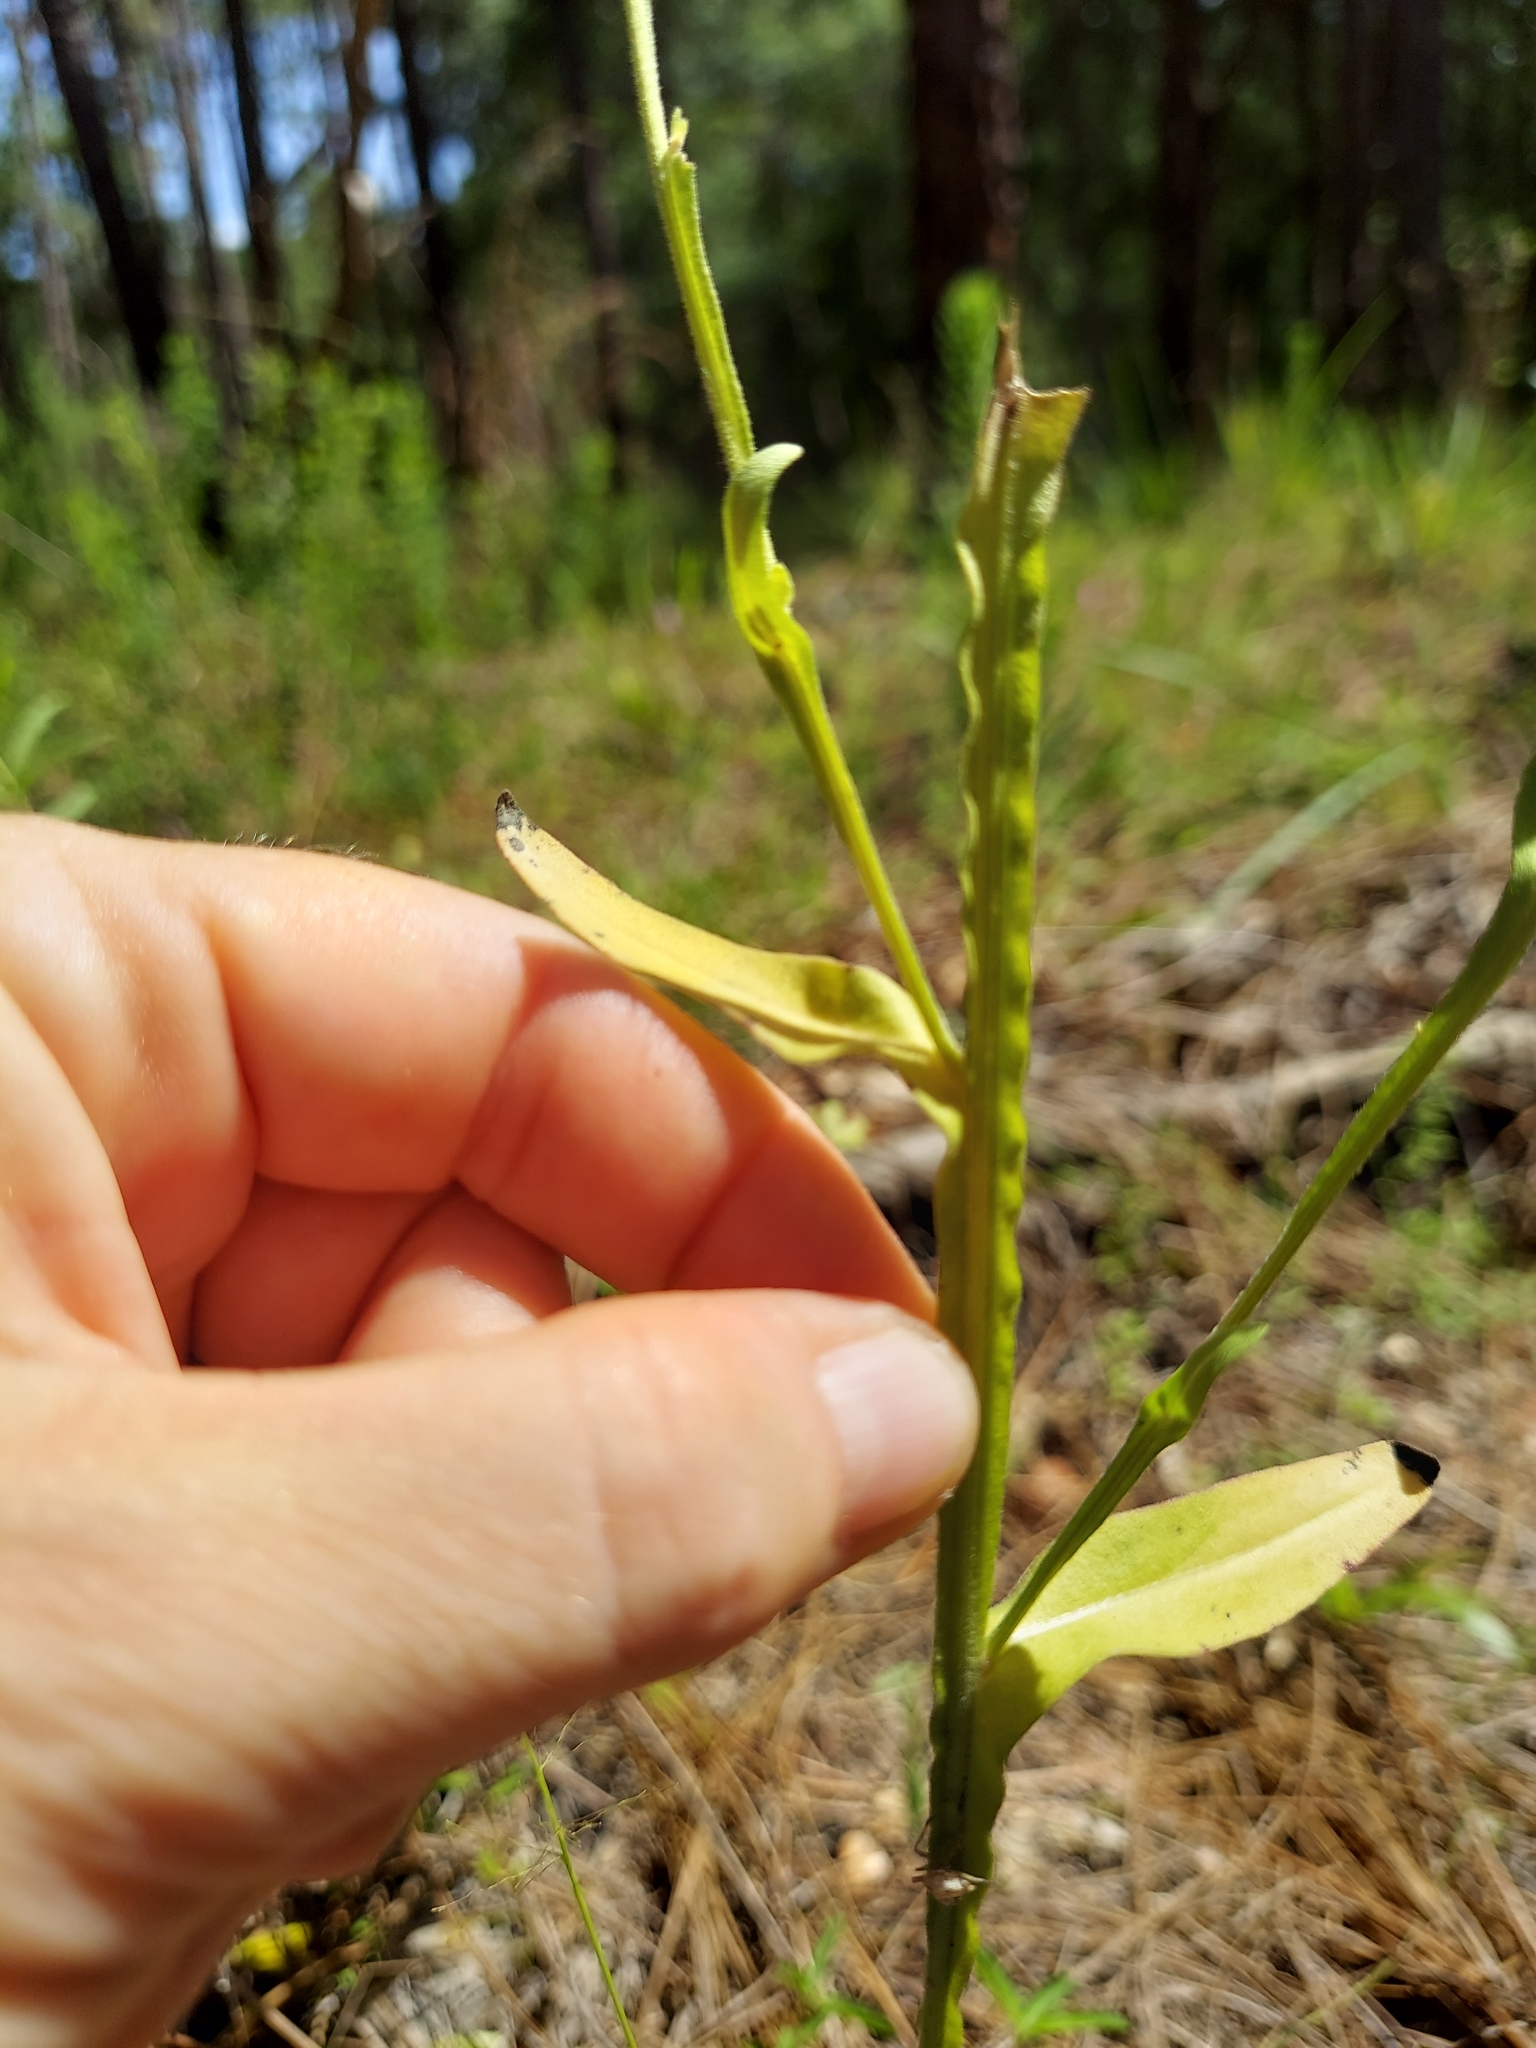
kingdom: Plantae
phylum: Tracheophyta
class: Magnoliopsida
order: Asterales
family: Asteraceae
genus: Helenium
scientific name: Helenium flexuosum
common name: Naked-flowered sneezeweed
